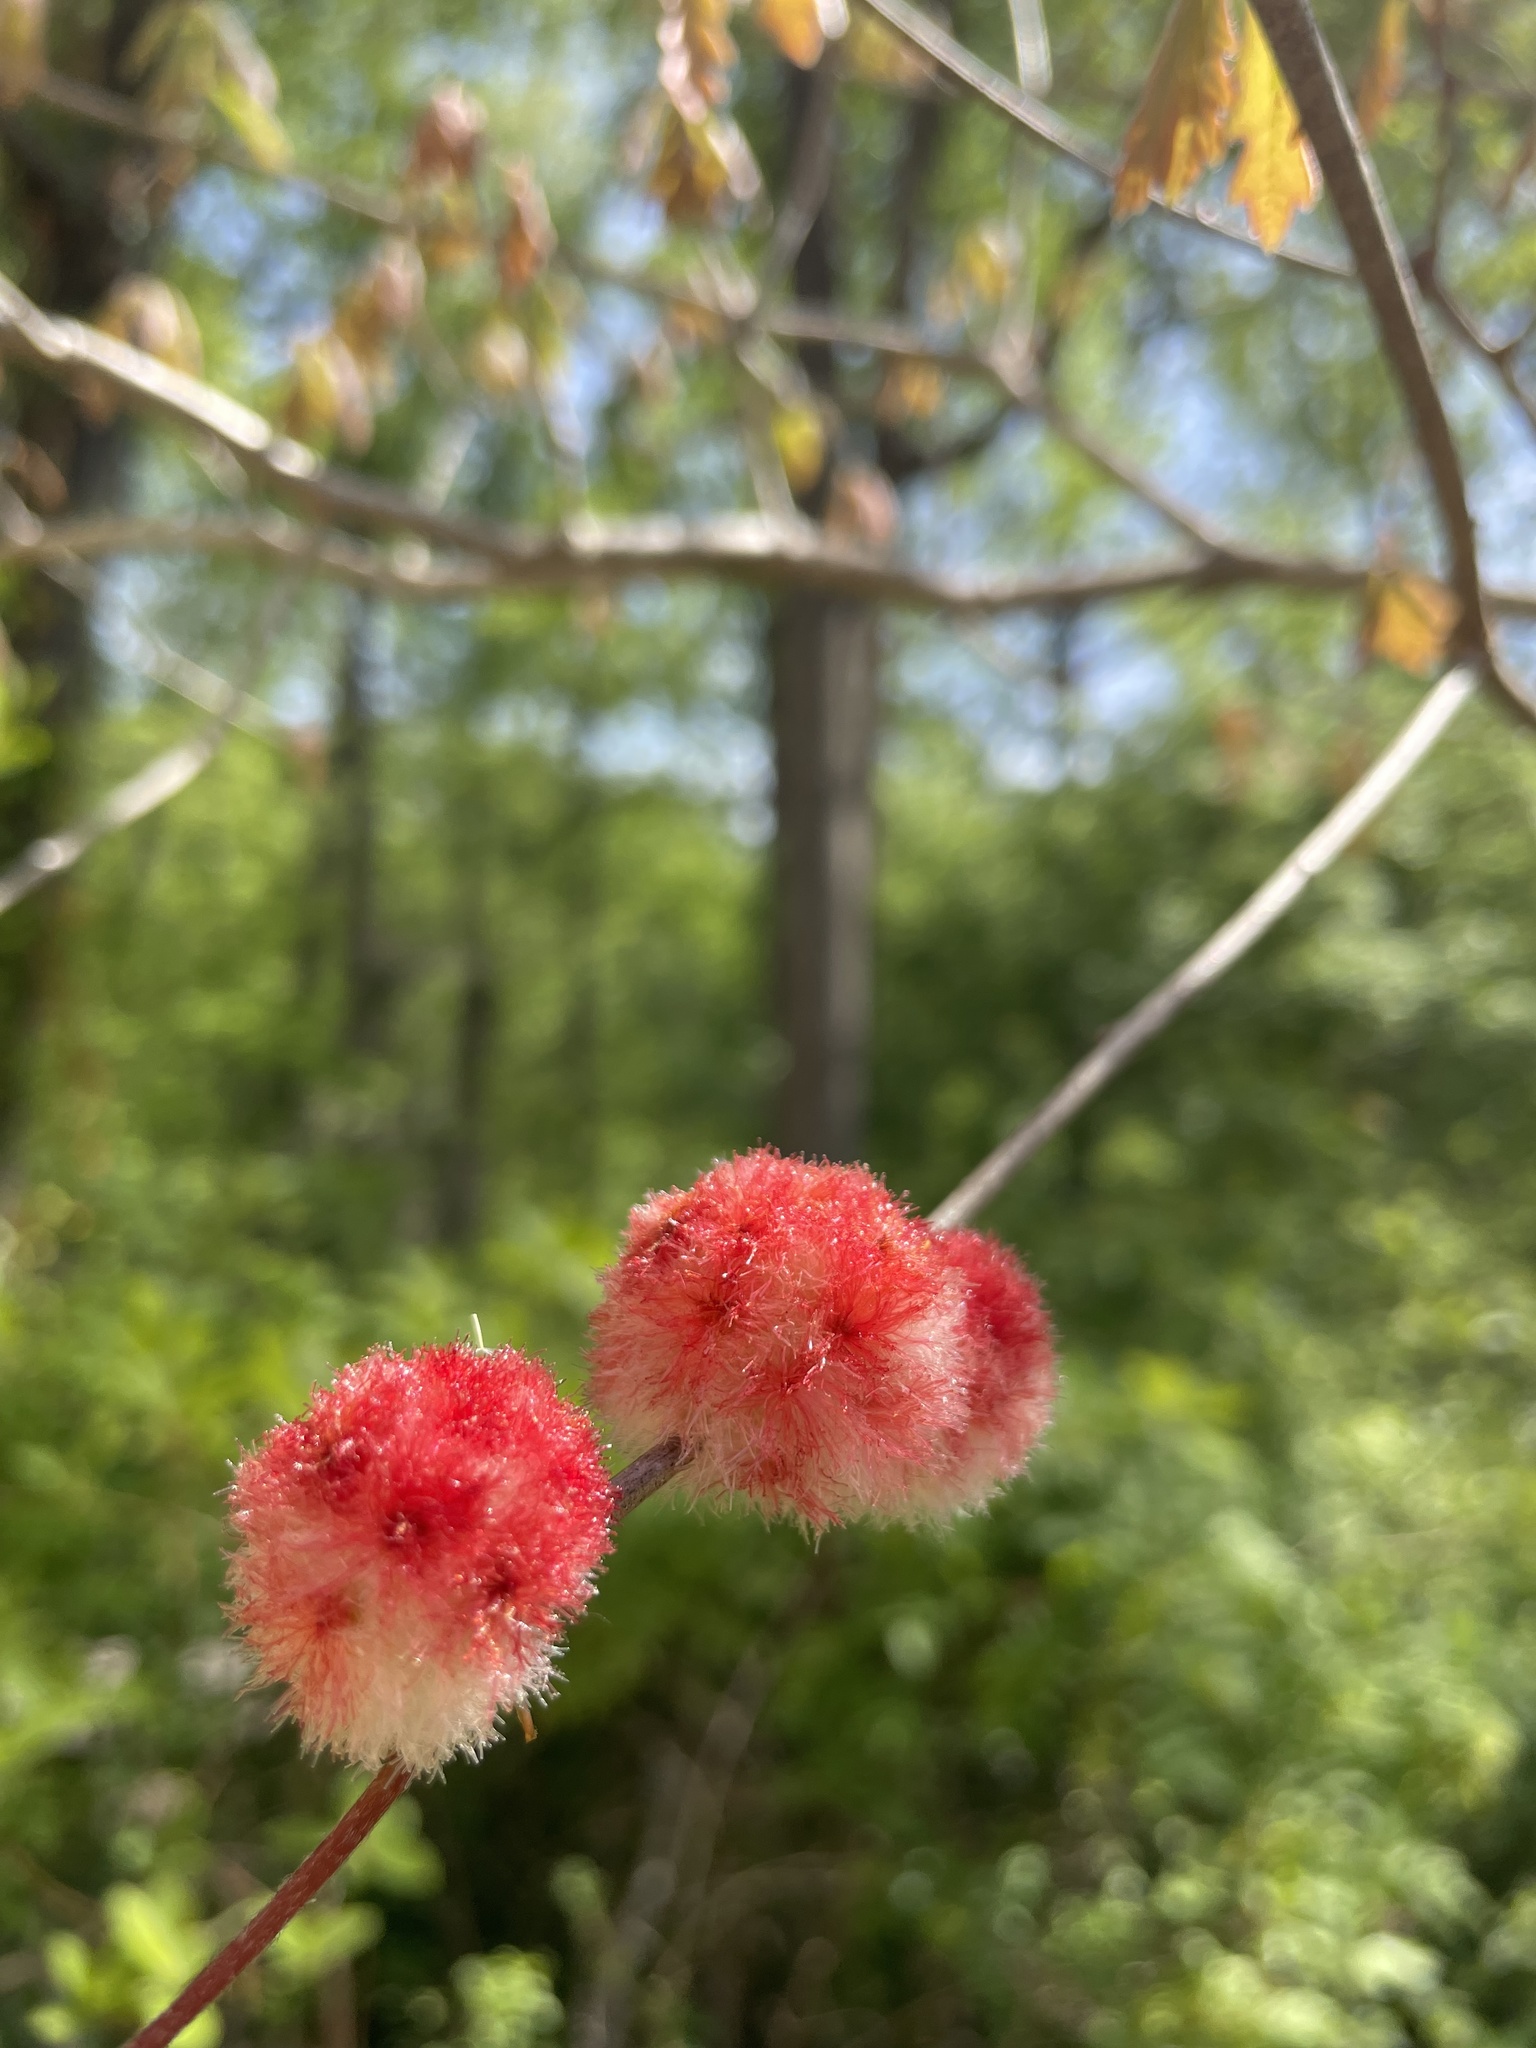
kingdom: Animalia
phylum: Arthropoda
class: Insecta
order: Hymenoptera
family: Cynipidae
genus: Callirhytis
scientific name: Callirhytis
